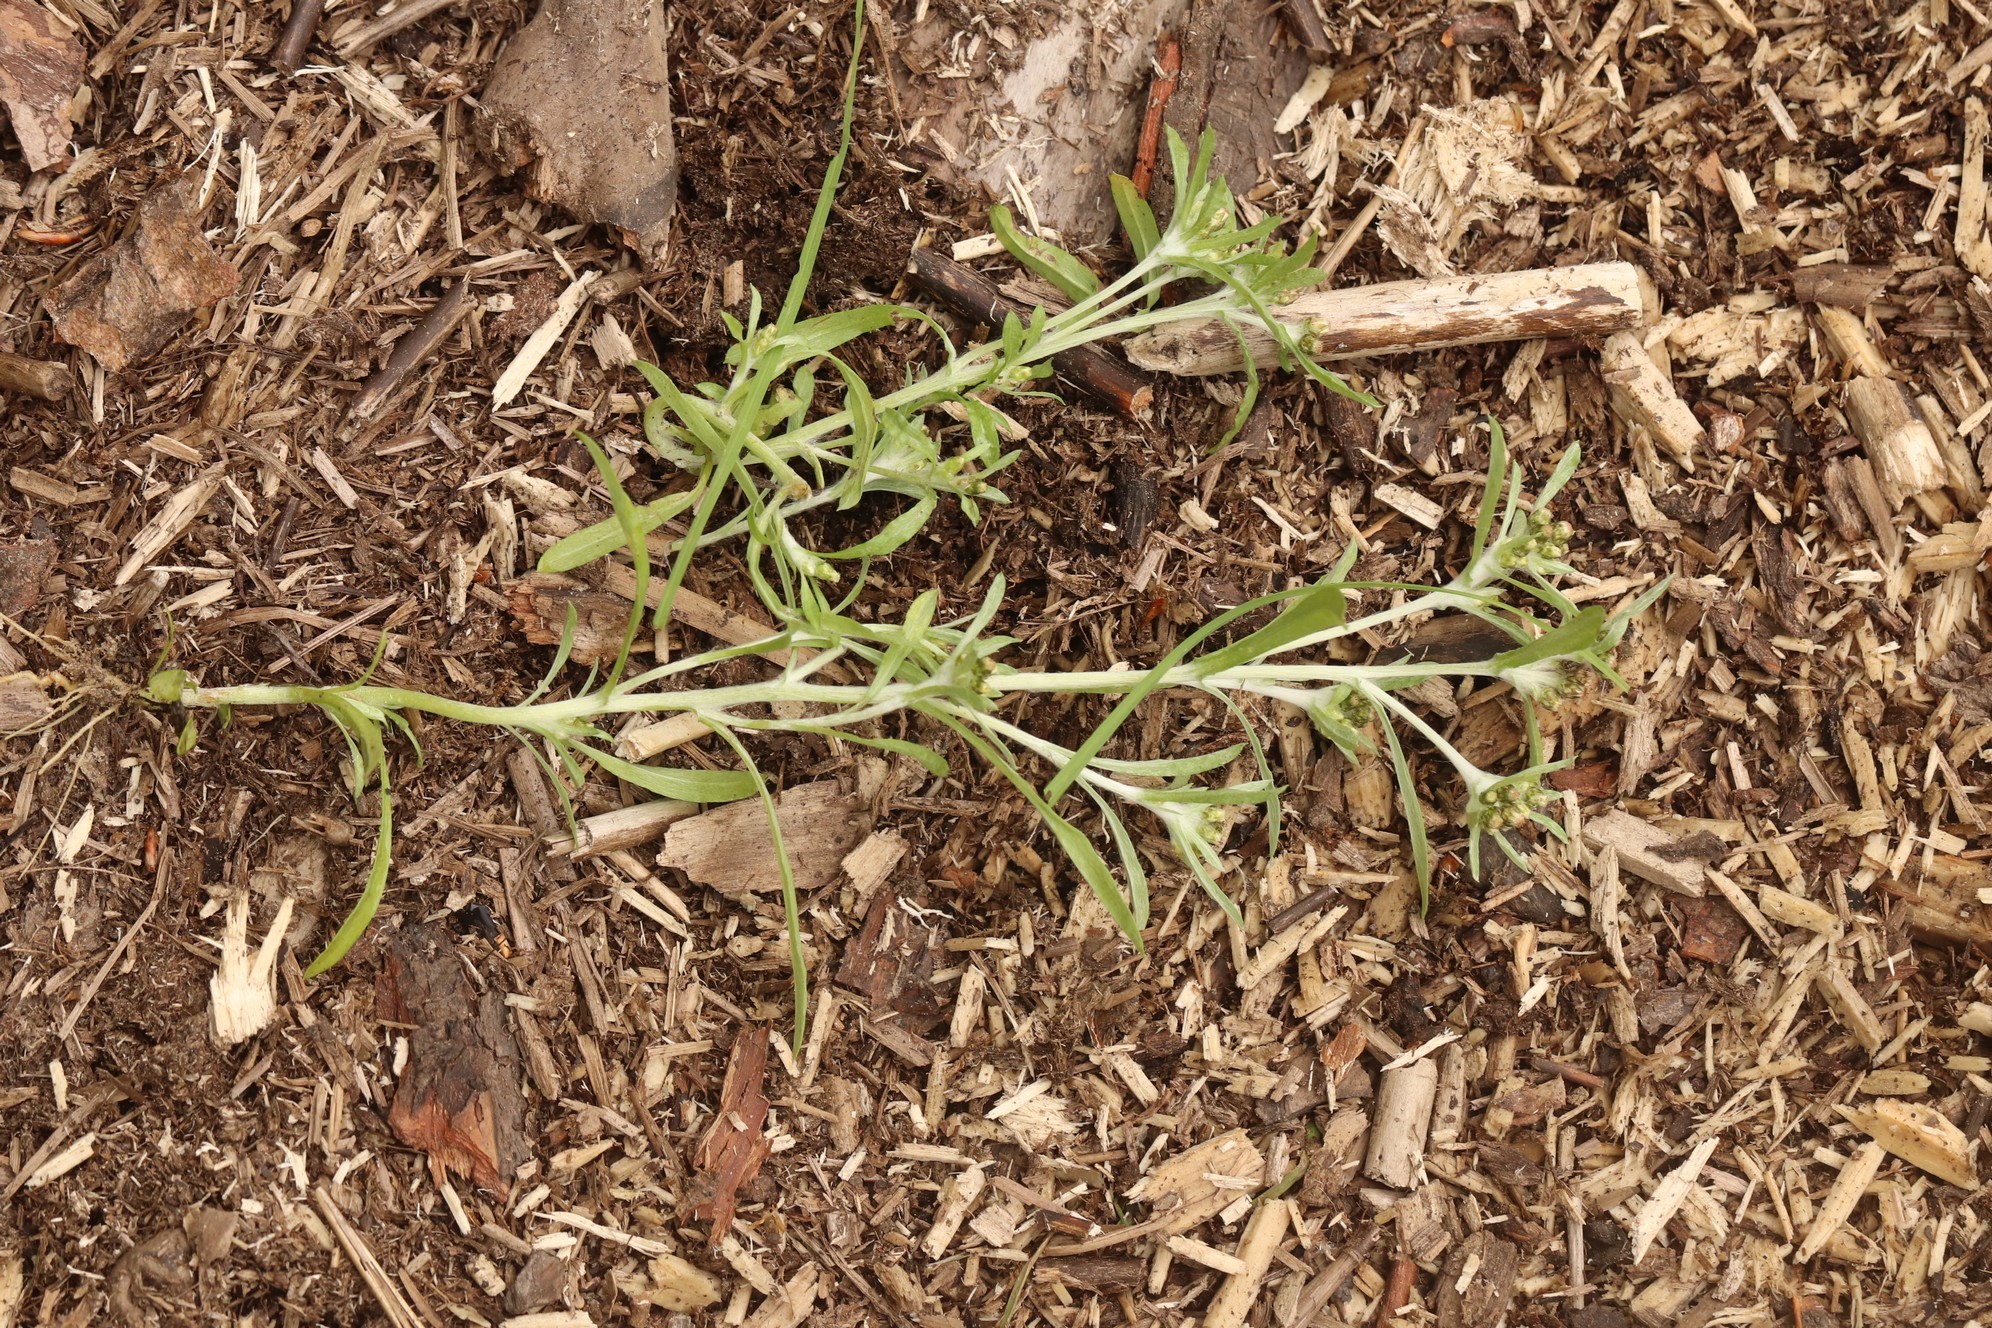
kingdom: Plantae
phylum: Tracheophyta
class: Magnoliopsida
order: Asterales
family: Asteraceae
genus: Gnaphalium
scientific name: Gnaphalium uliginosum
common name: Marsh cudweed
